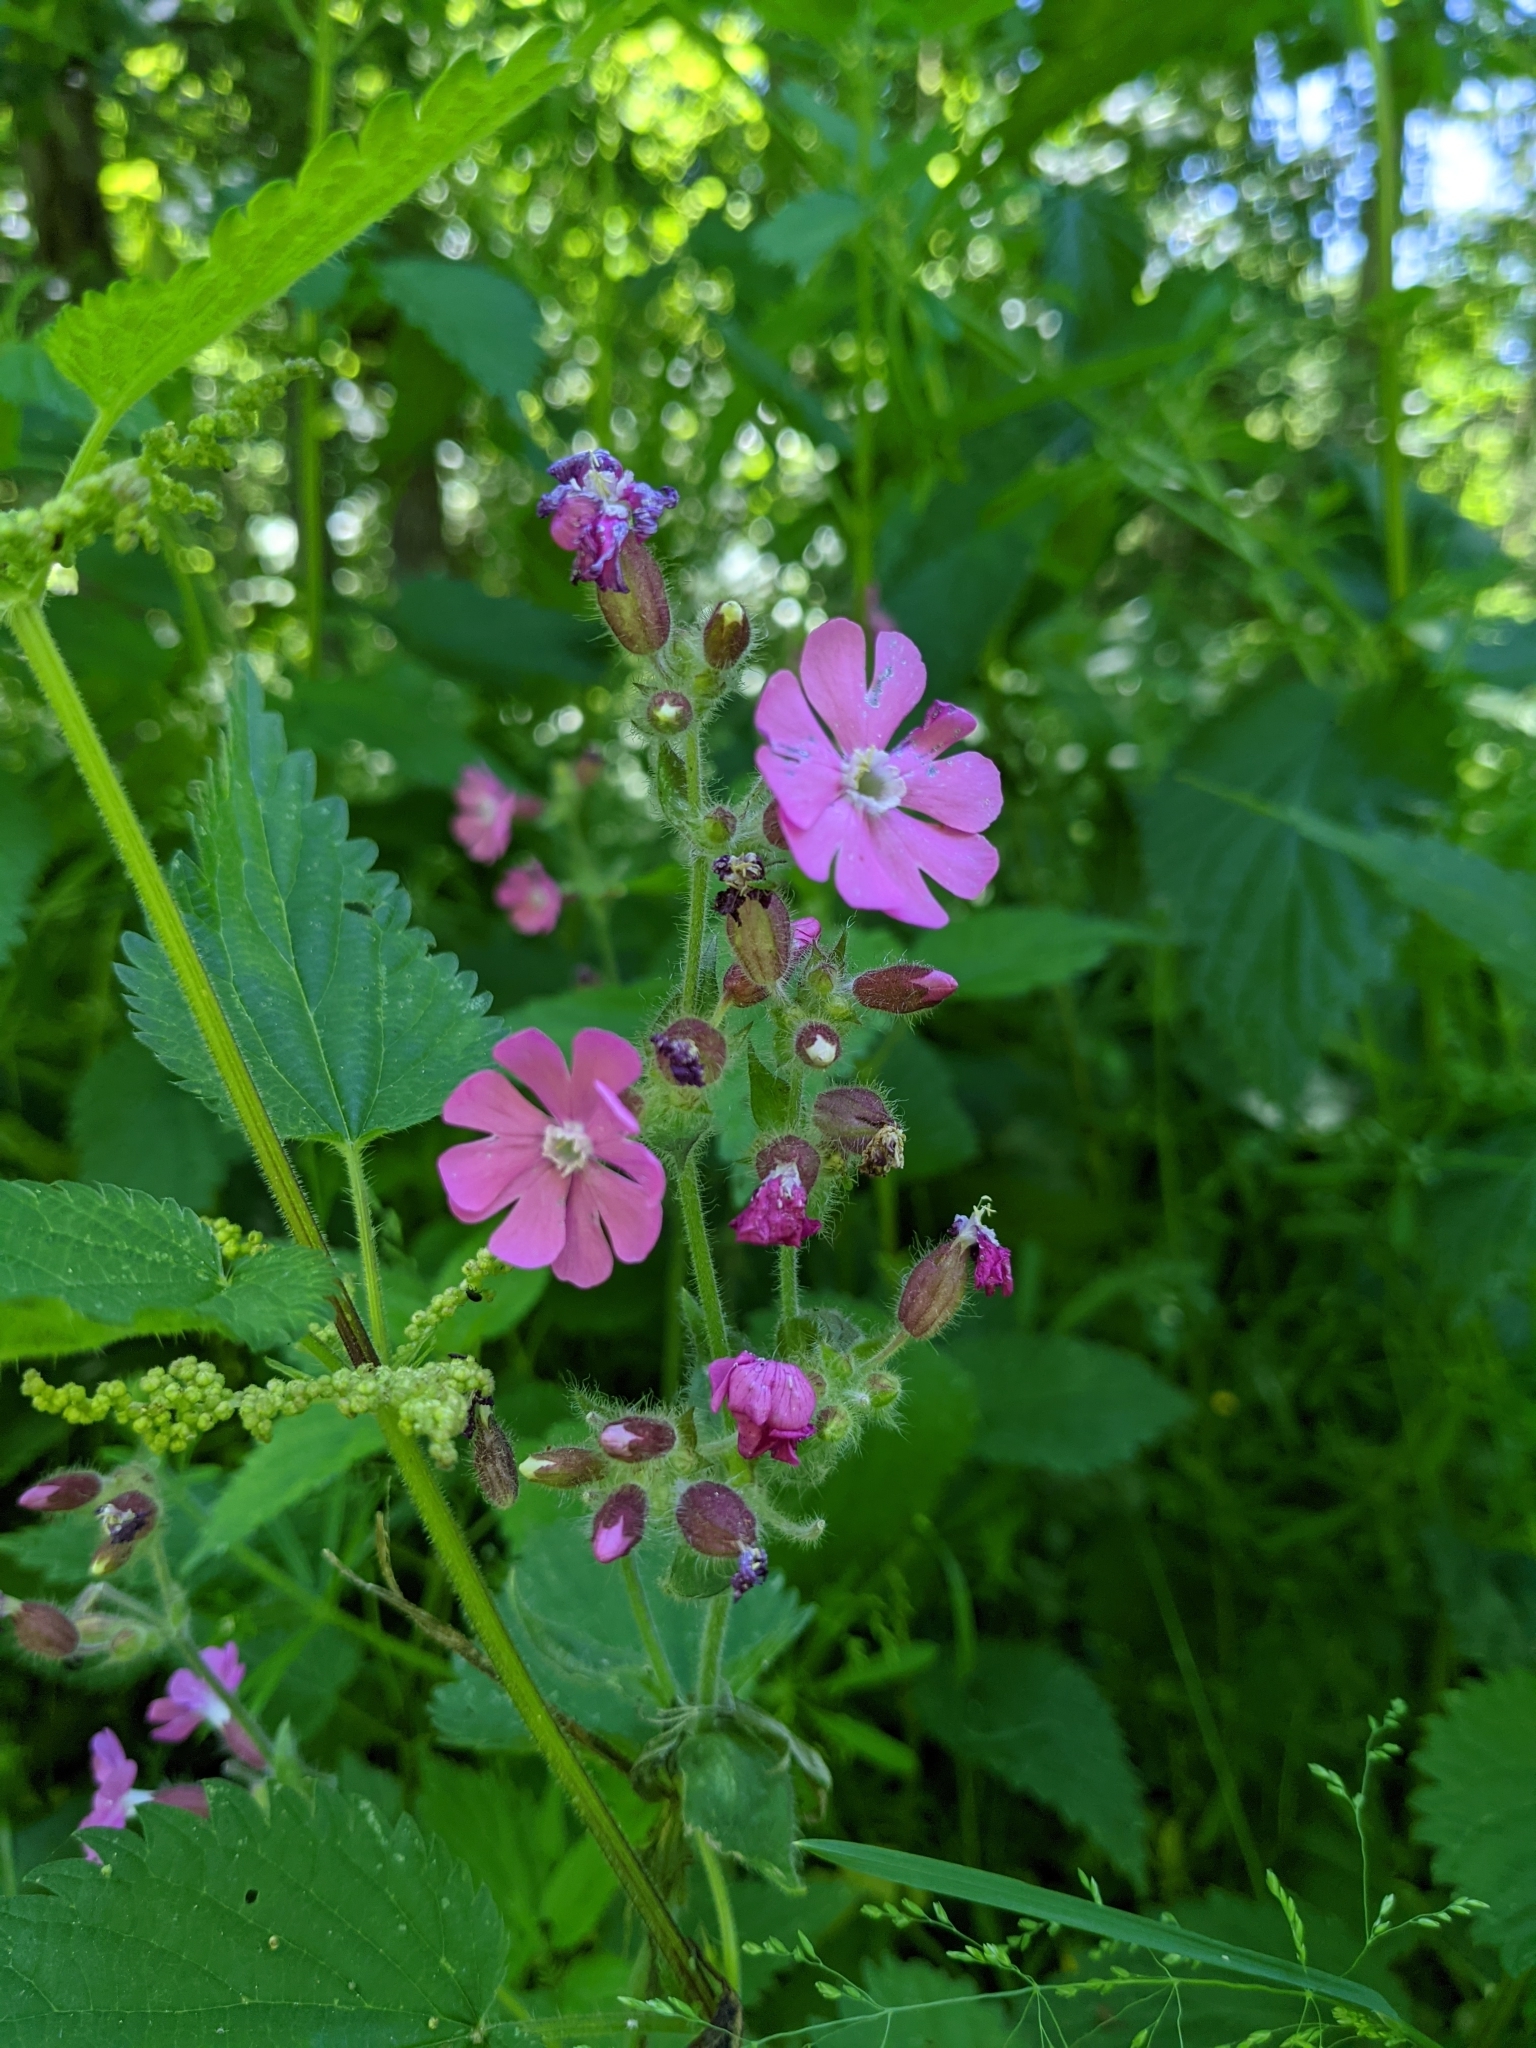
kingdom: Plantae
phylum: Tracheophyta
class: Magnoliopsida
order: Caryophyllales
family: Caryophyllaceae
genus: Silene
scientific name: Silene dioica
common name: Red campion
